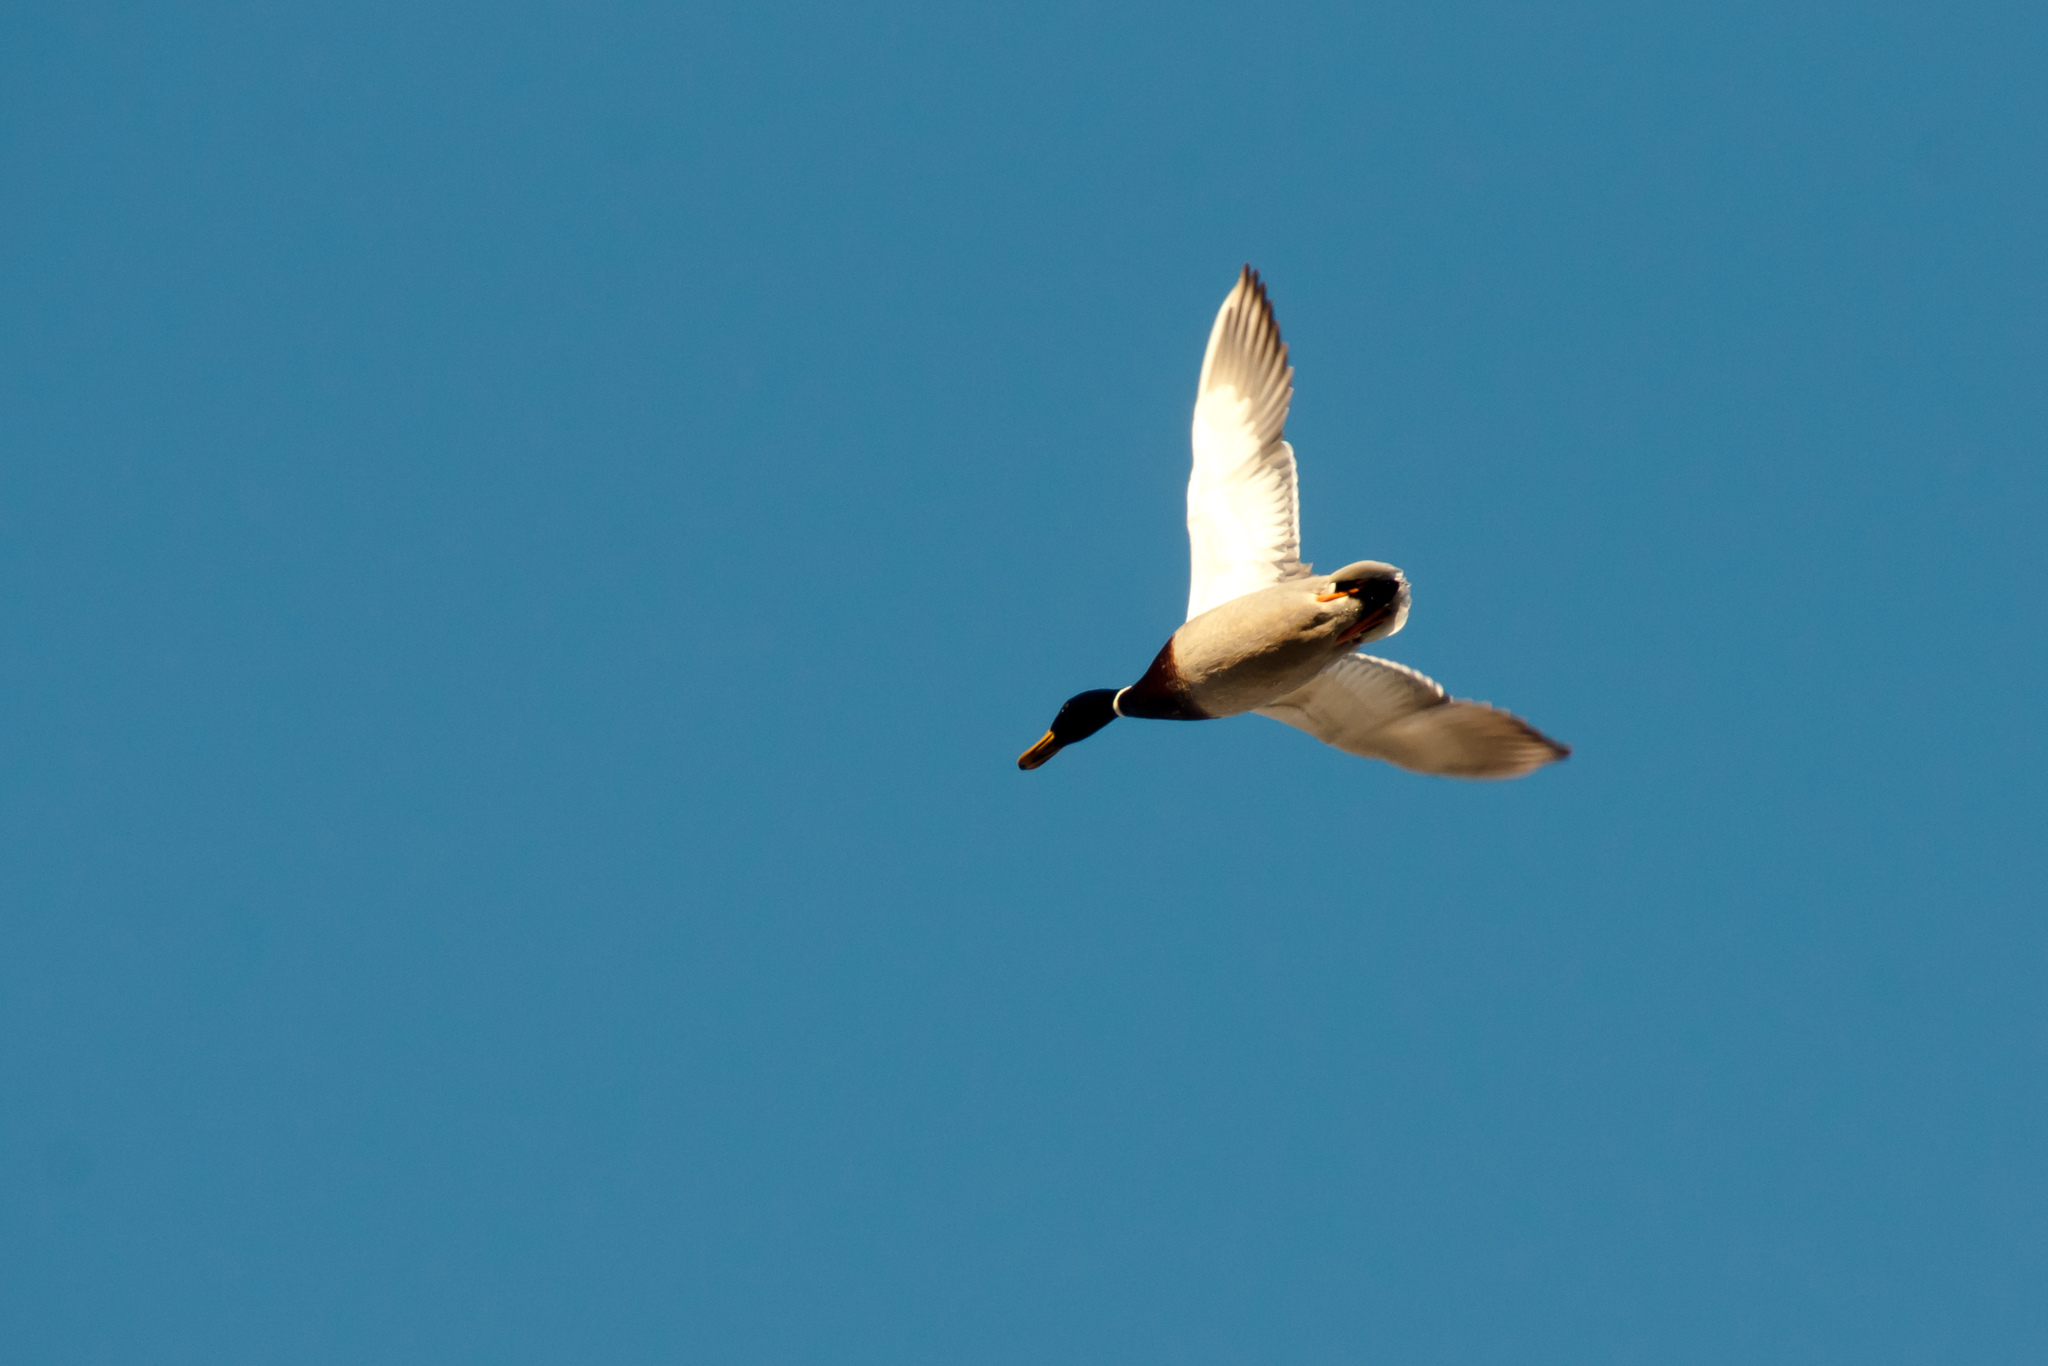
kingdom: Animalia
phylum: Chordata
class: Aves
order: Anseriformes
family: Anatidae
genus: Anas
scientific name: Anas platyrhynchos
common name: Mallard
